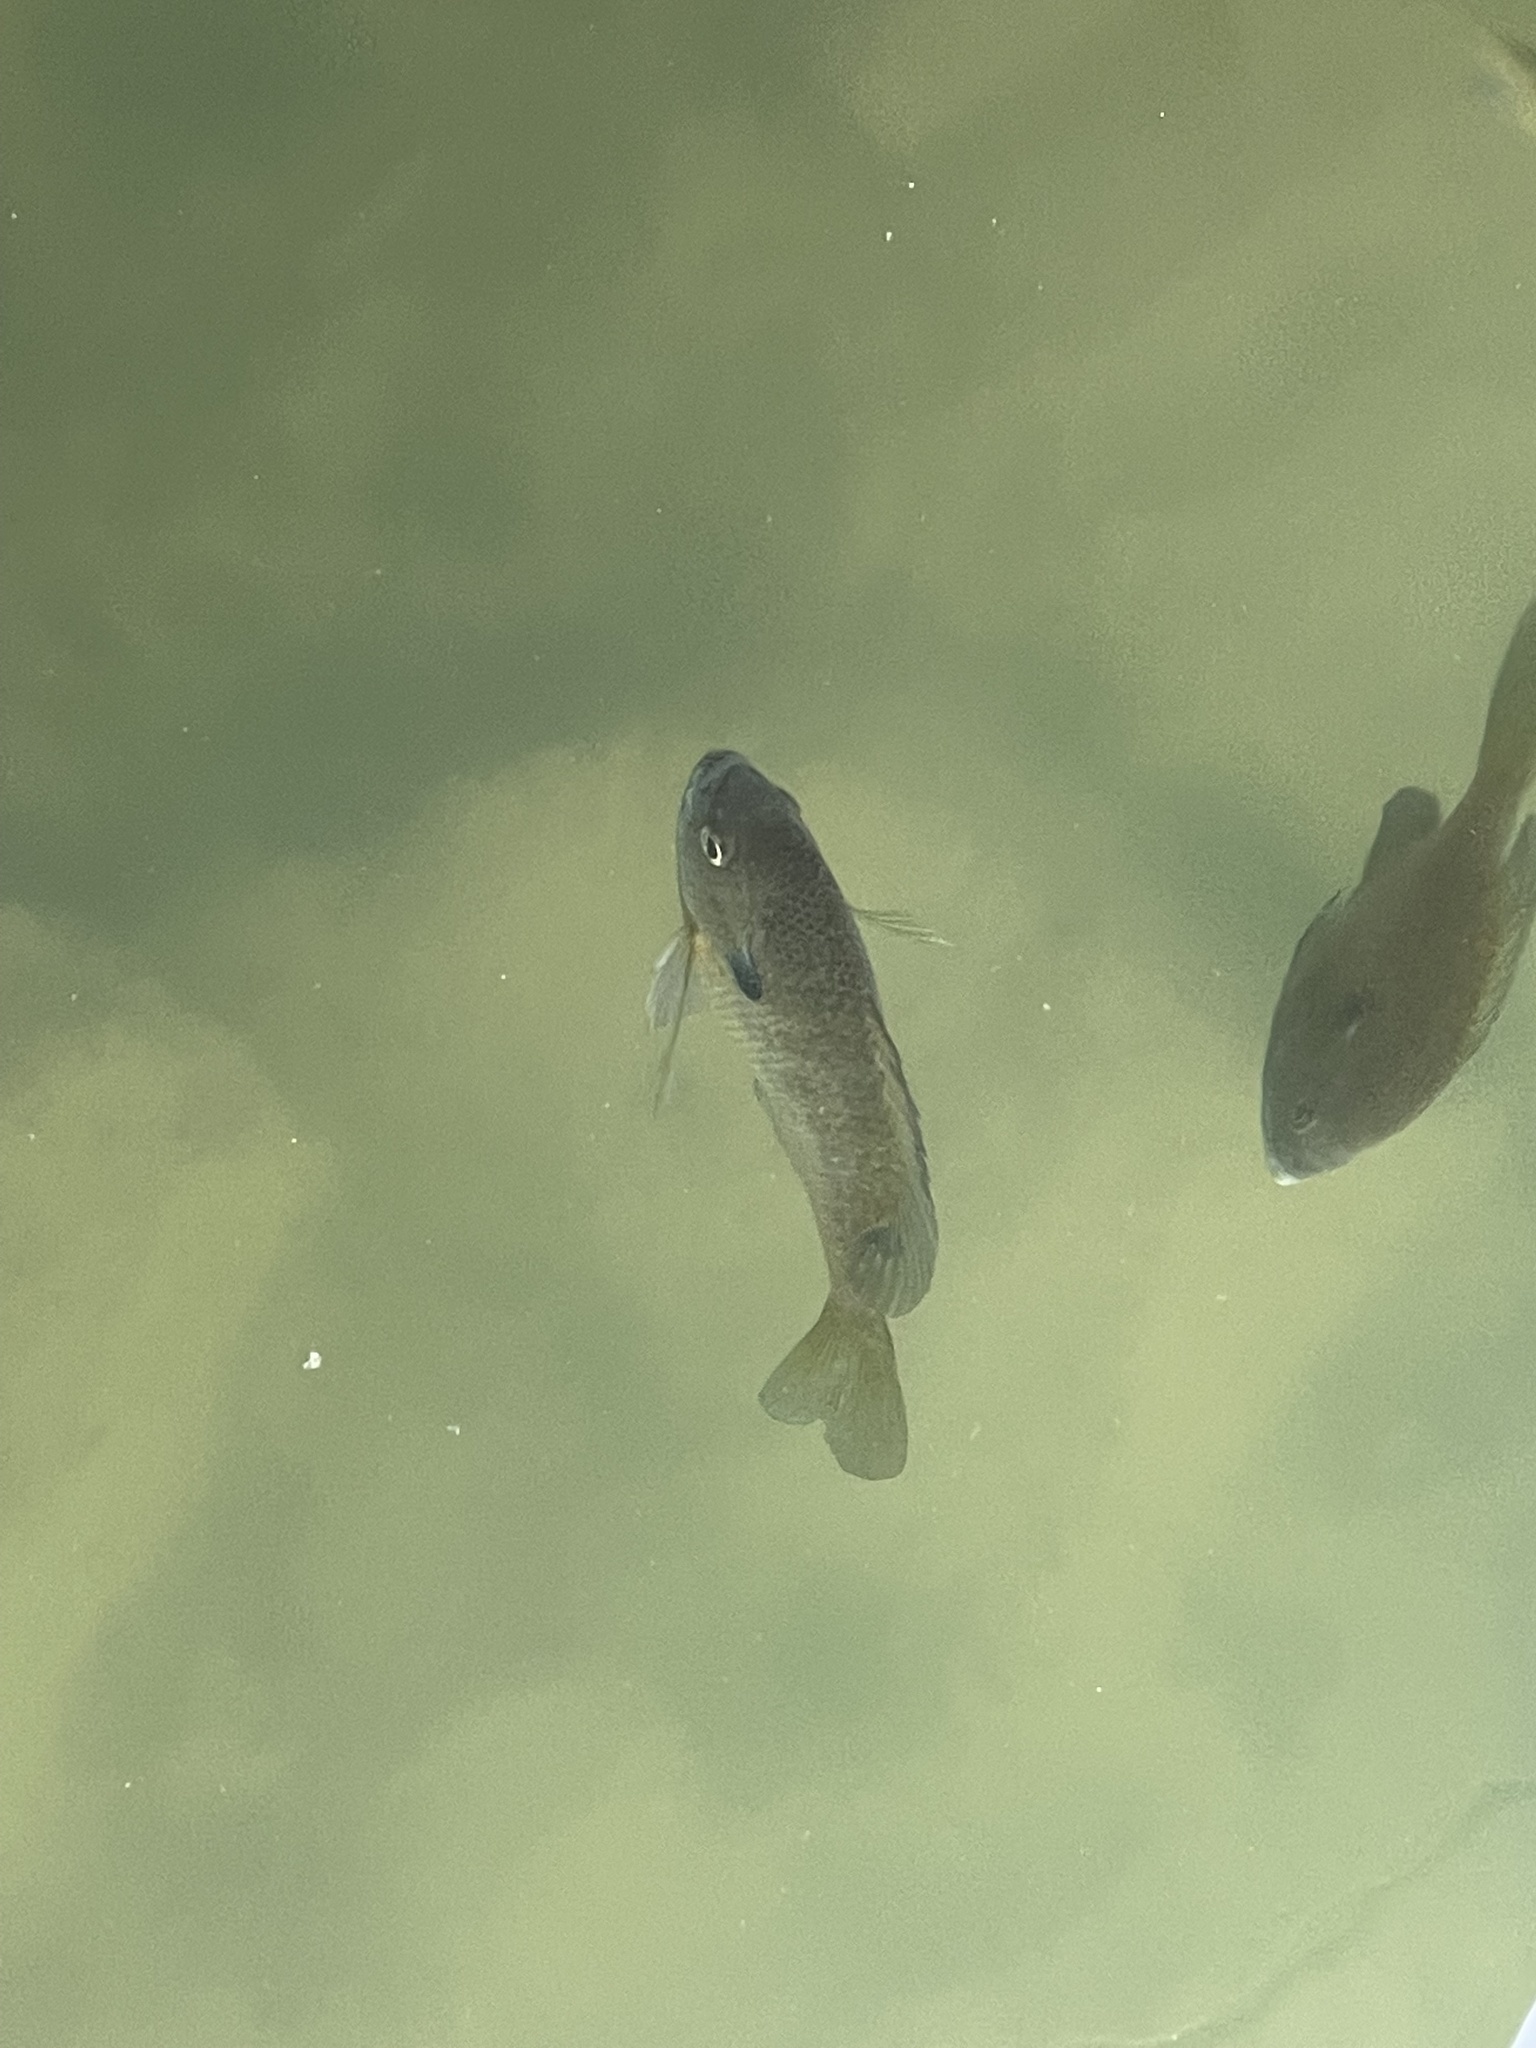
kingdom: Animalia
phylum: Chordata
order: Perciformes
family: Centrarchidae
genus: Lepomis
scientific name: Lepomis macrochirus
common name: Bluegill
